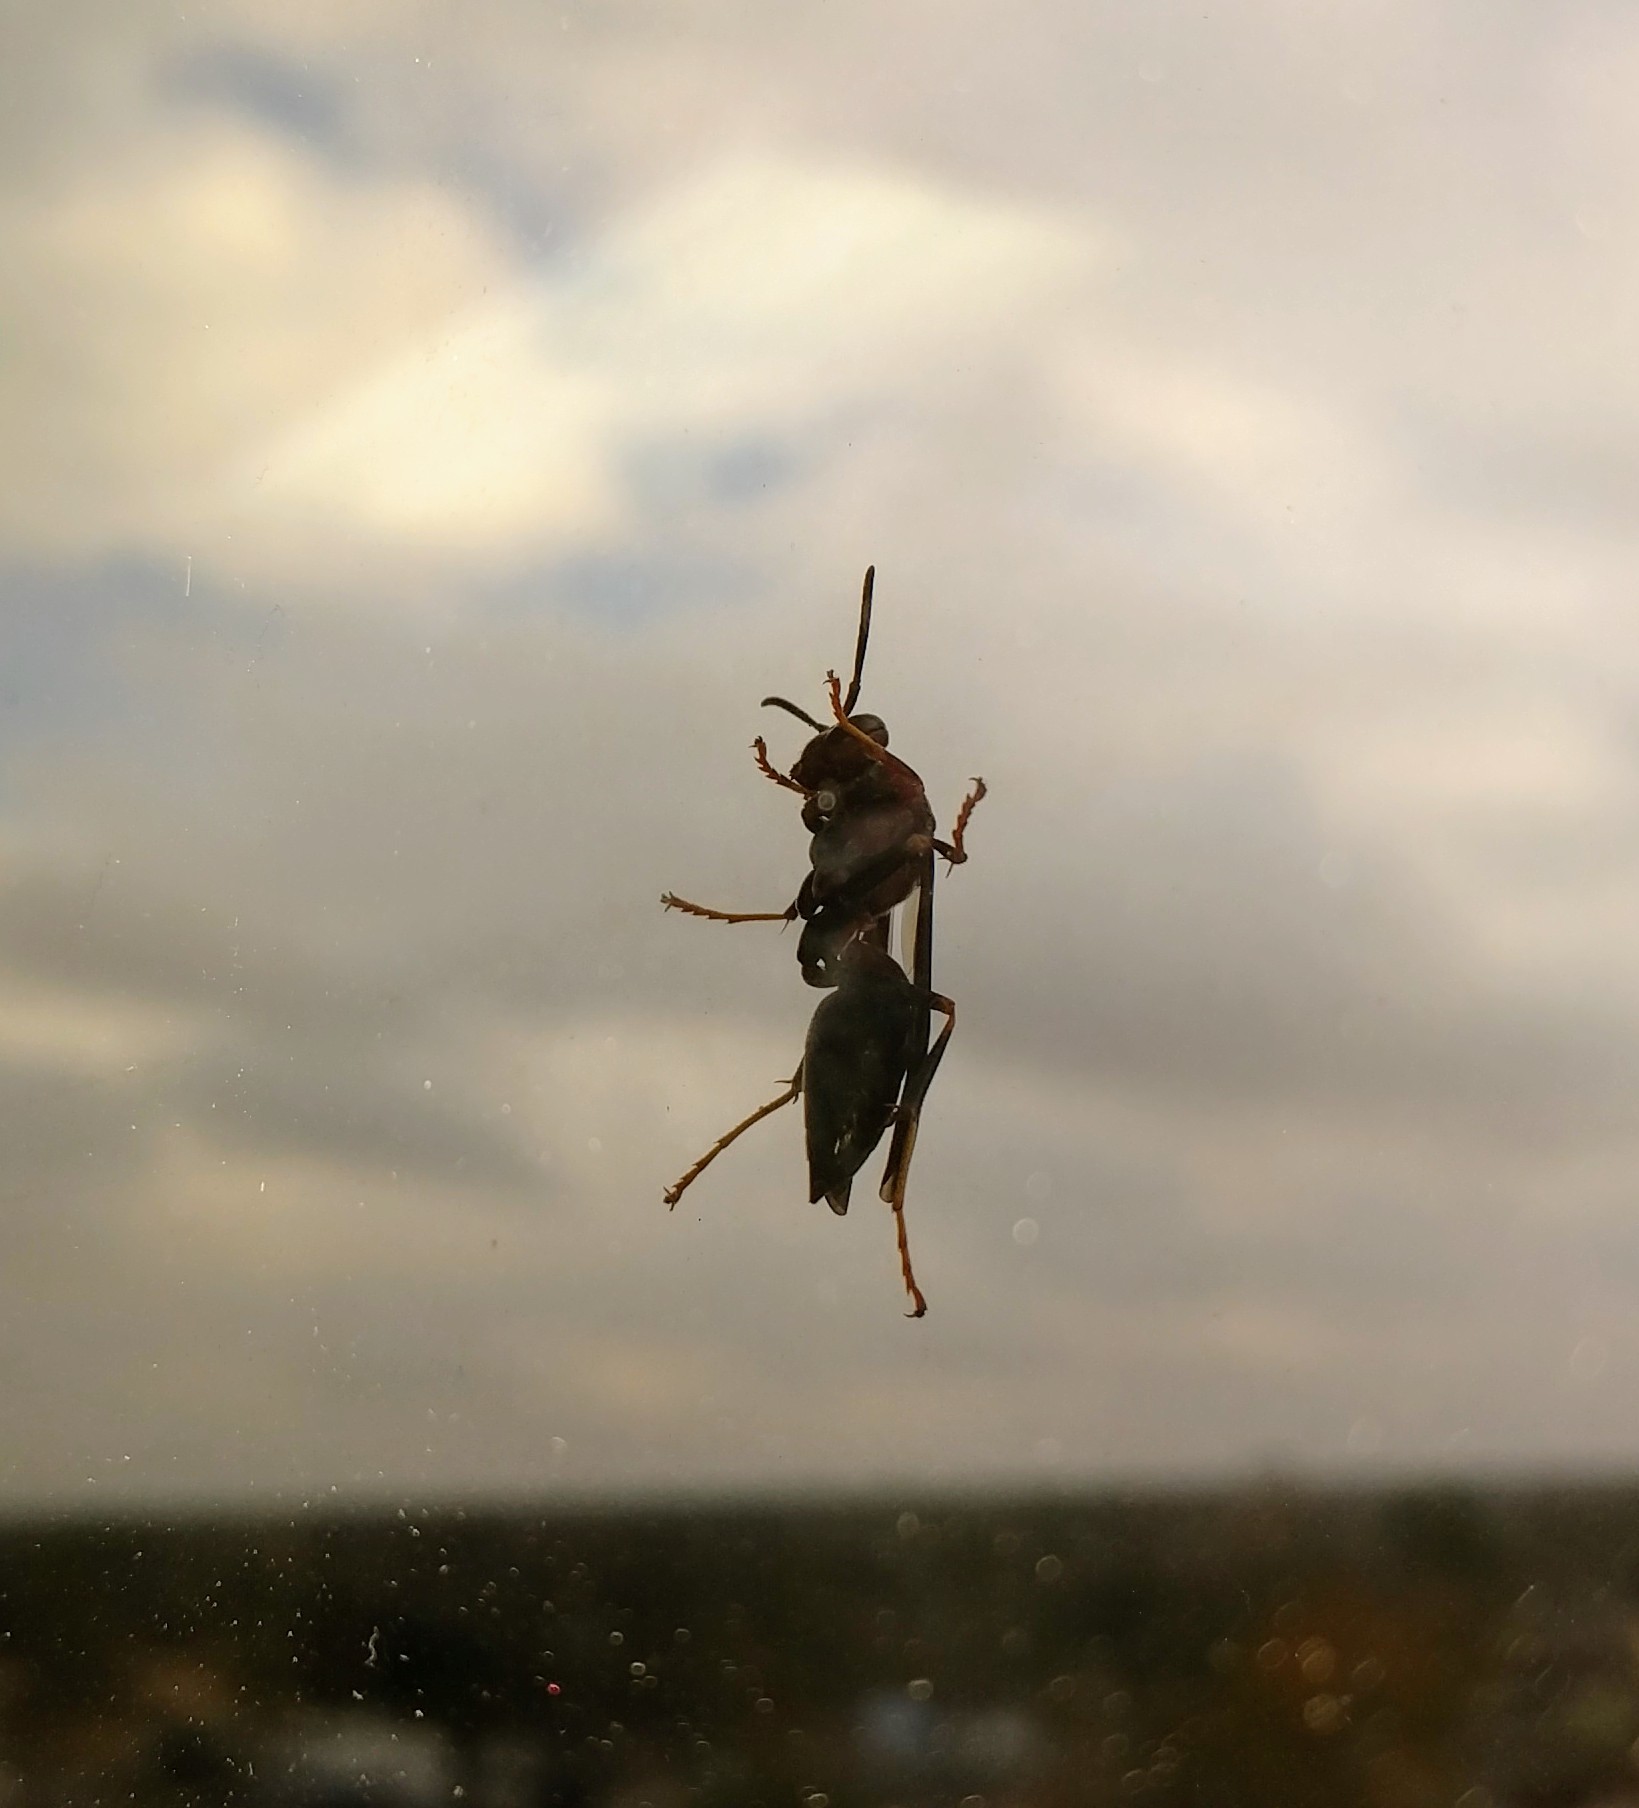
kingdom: Animalia
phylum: Arthropoda
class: Insecta
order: Hymenoptera
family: Eumenidae
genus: Polistes
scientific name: Polistes metricus
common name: Metric paper wasp
